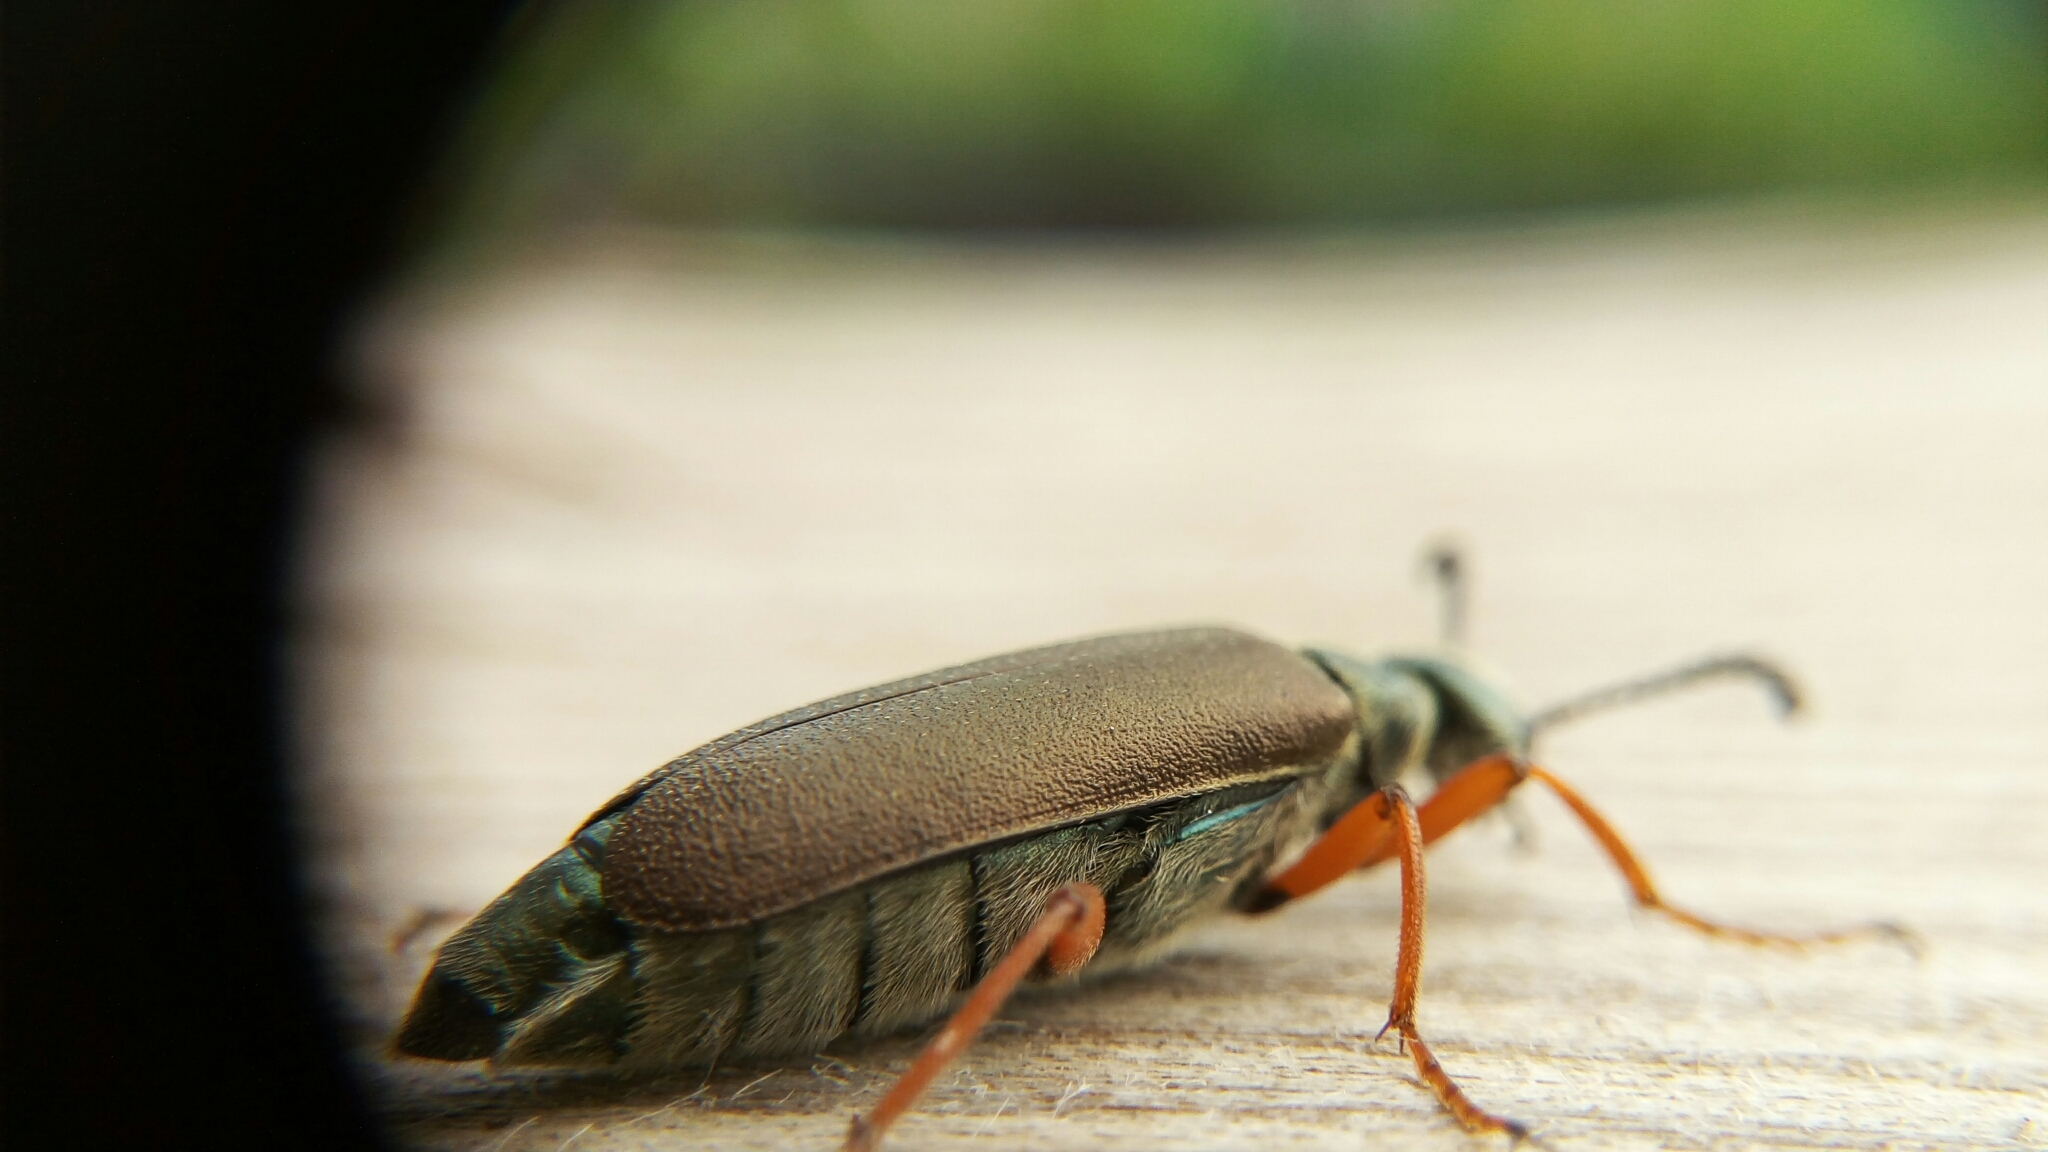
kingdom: Animalia
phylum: Arthropoda
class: Insecta
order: Coleoptera
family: Meloidae
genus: Lytta
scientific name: Lytta aenea
